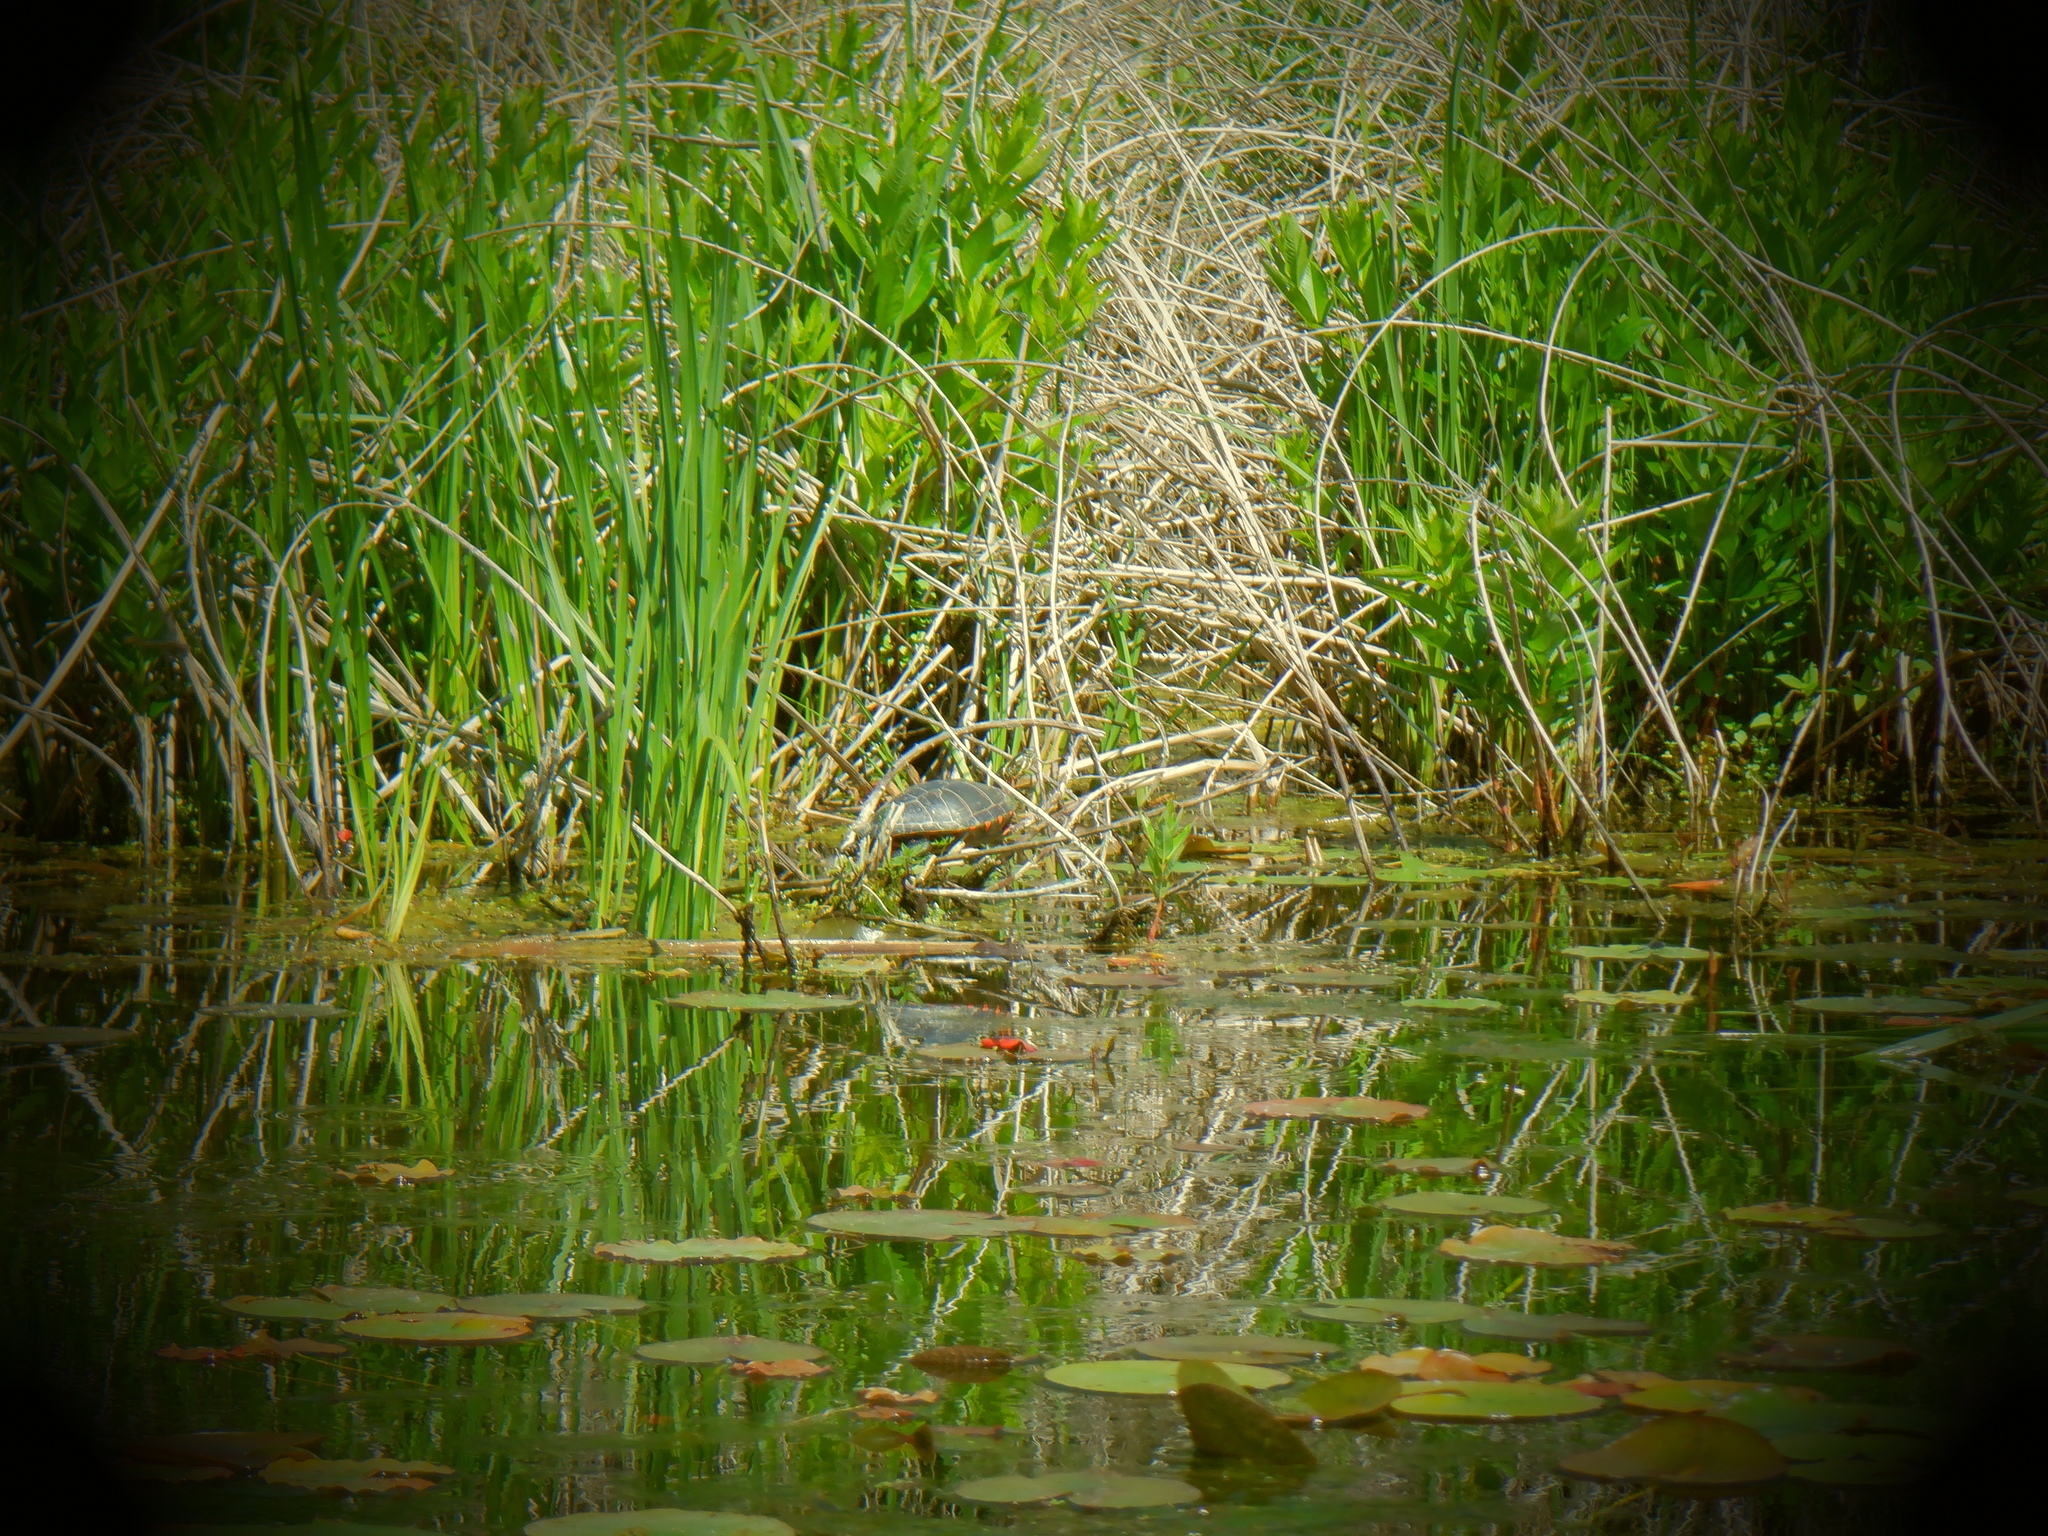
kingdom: Animalia
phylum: Chordata
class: Testudines
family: Emydidae
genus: Chrysemys
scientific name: Chrysemys picta
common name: Painted turtle
